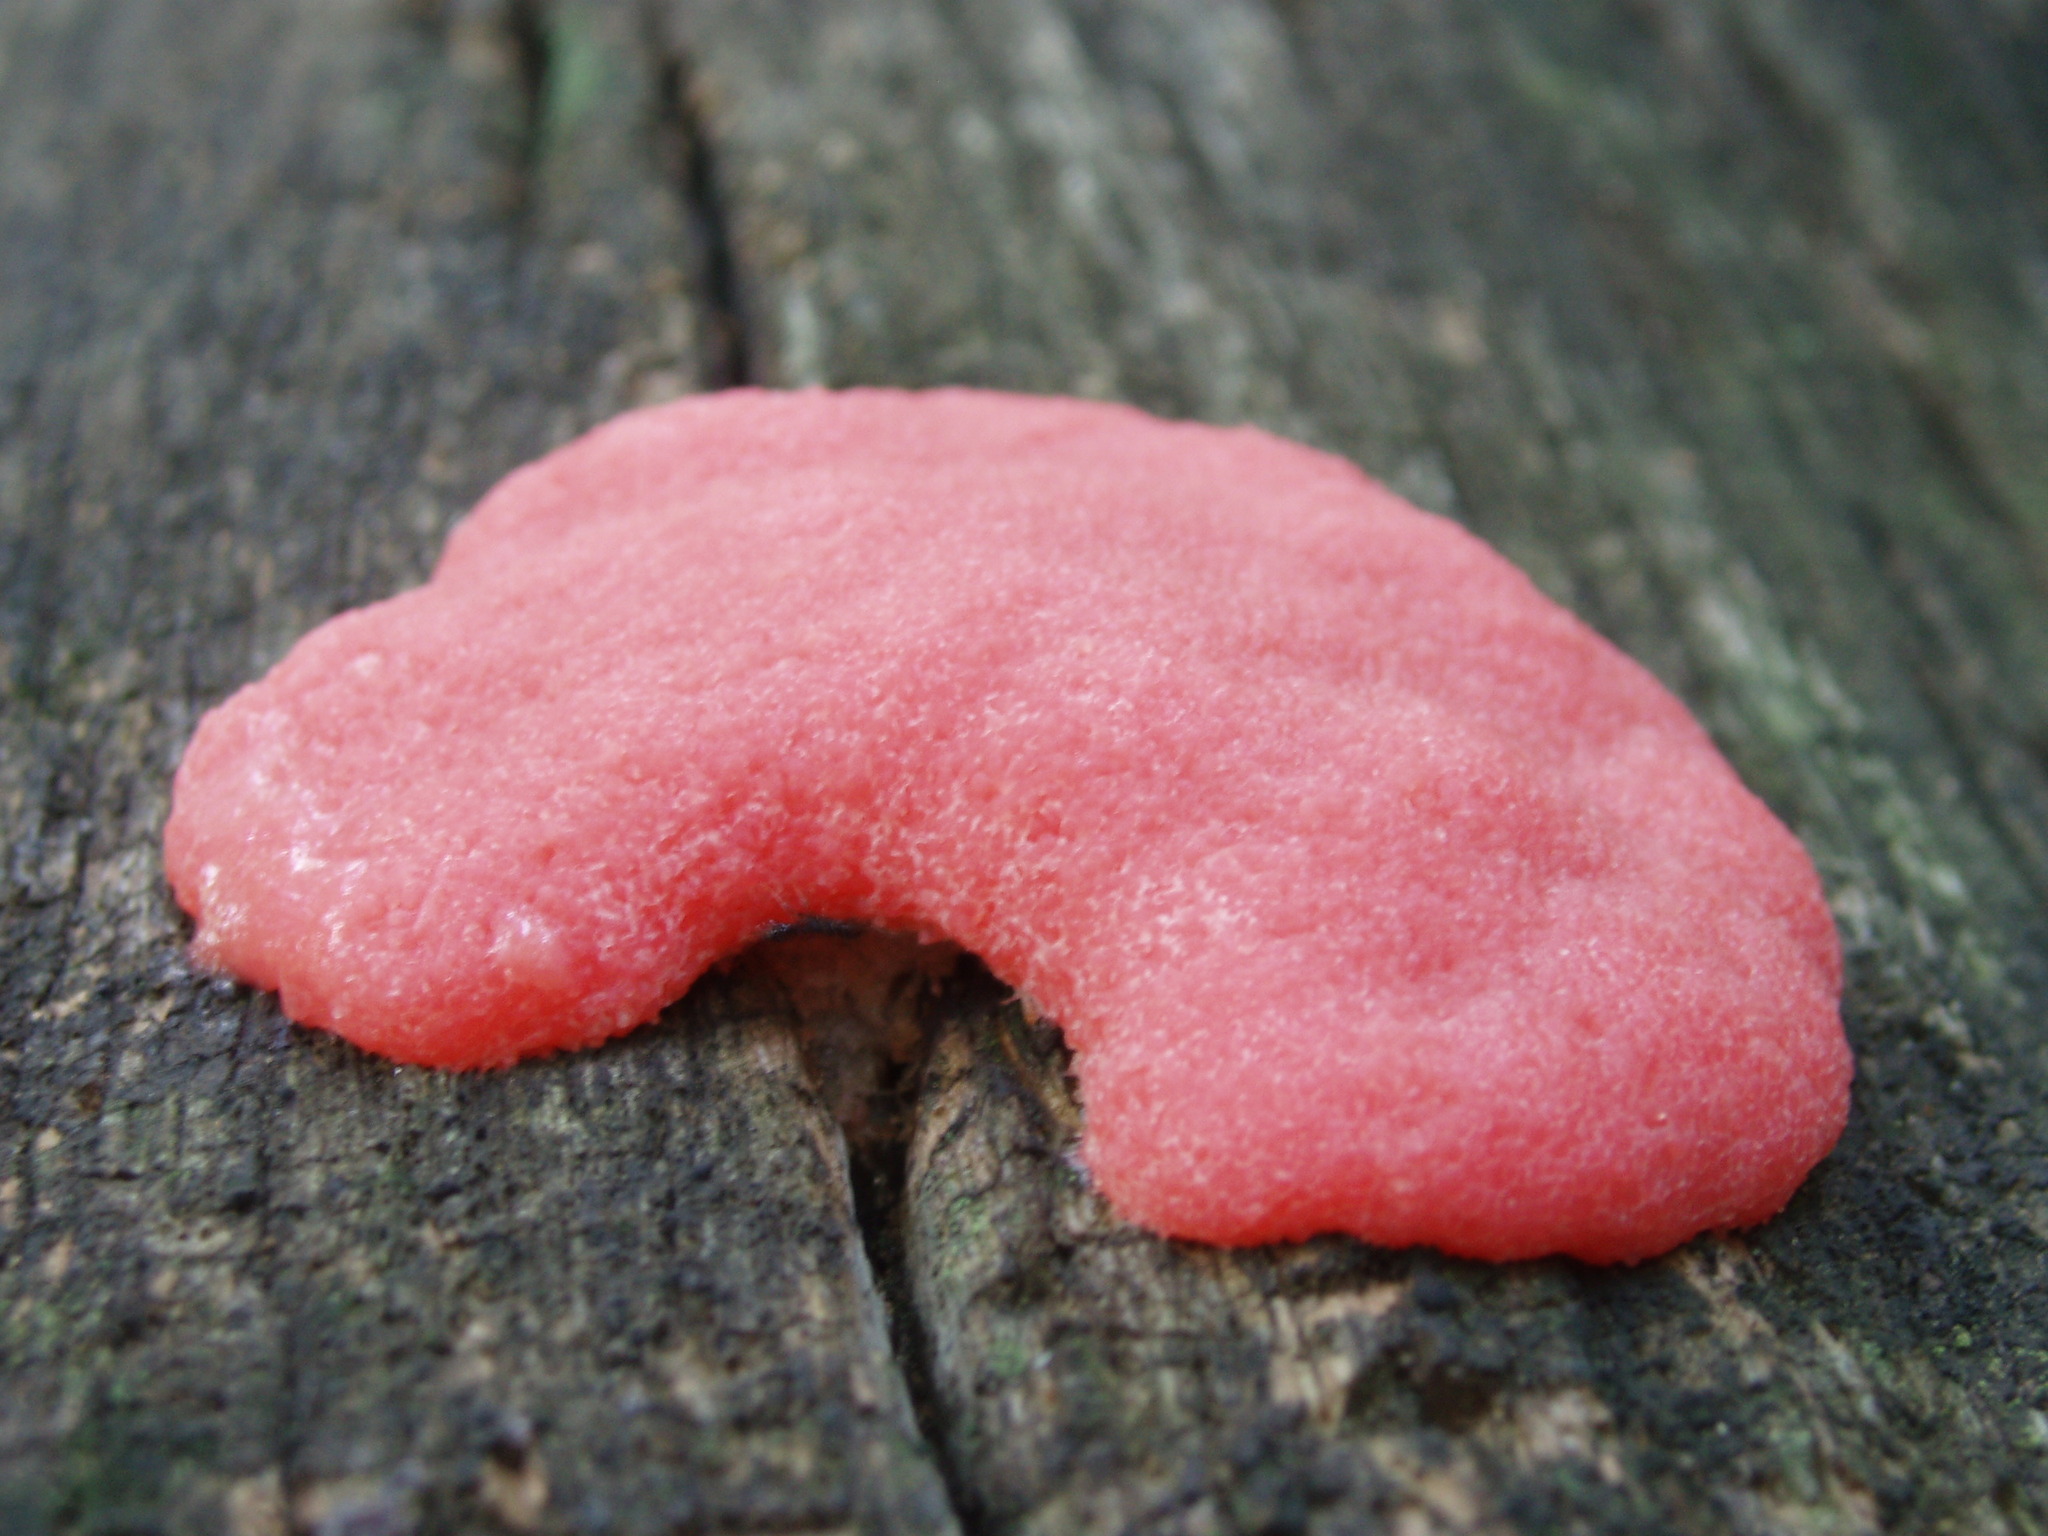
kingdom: Protozoa
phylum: Mycetozoa
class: Myxomycetes
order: Cribrariales
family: Tubiferaceae
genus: Tubifera
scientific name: Tubifera magna
